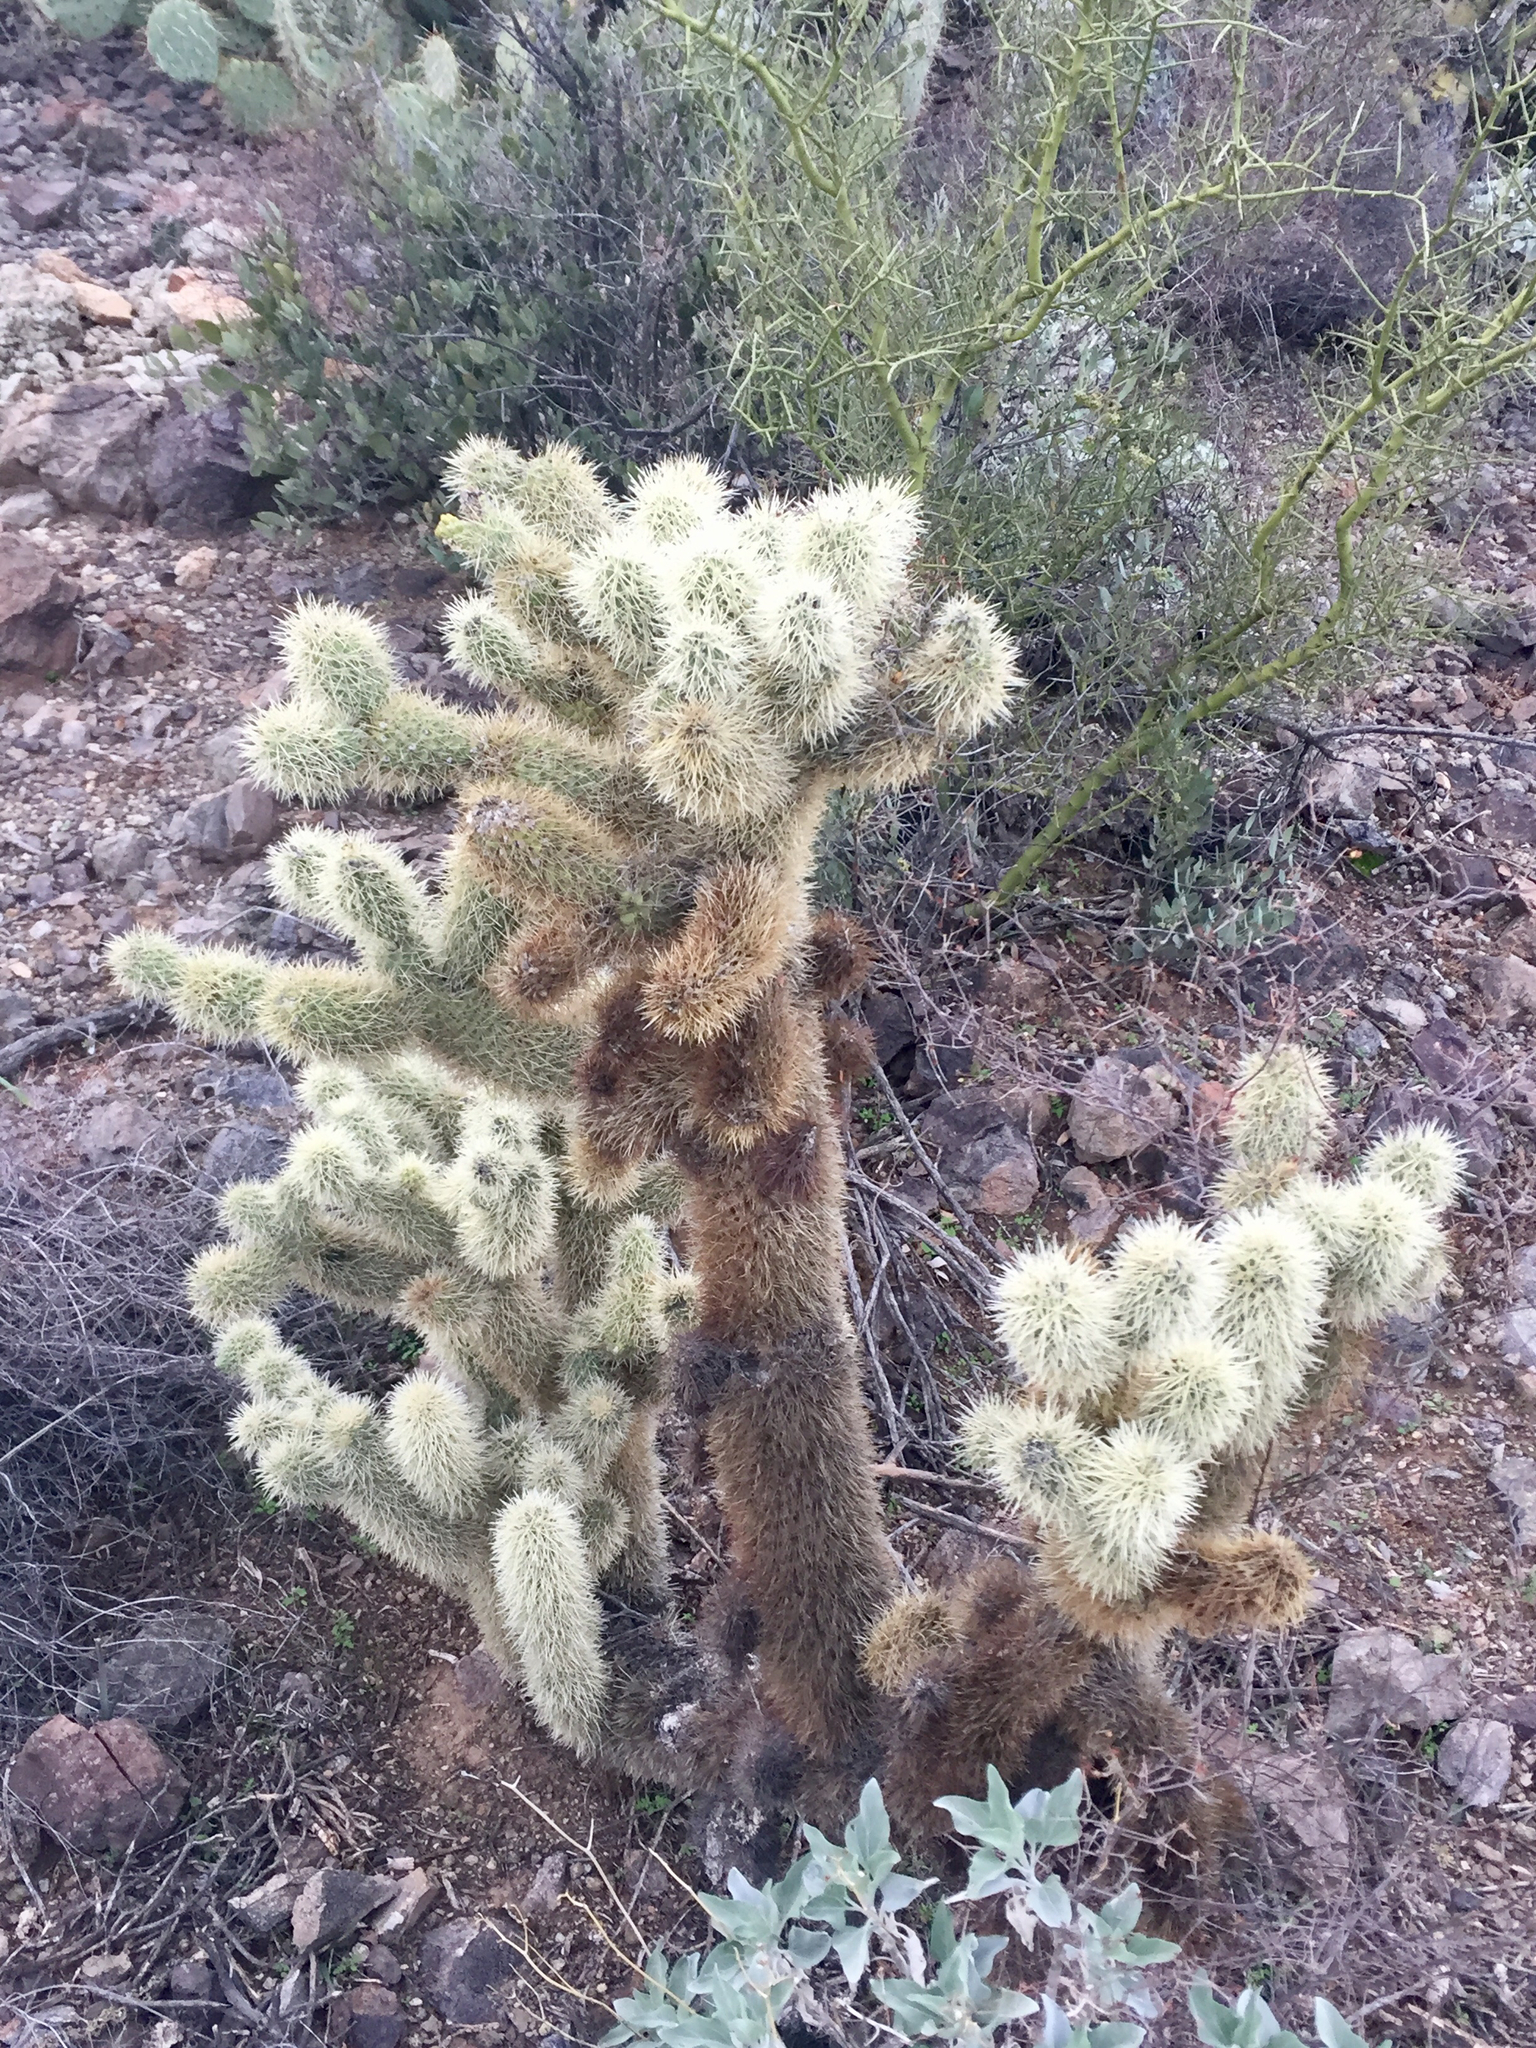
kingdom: Plantae
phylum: Tracheophyta
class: Magnoliopsida
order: Caryophyllales
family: Cactaceae
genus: Cylindropuntia
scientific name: Cylindropuntia fosbergii
